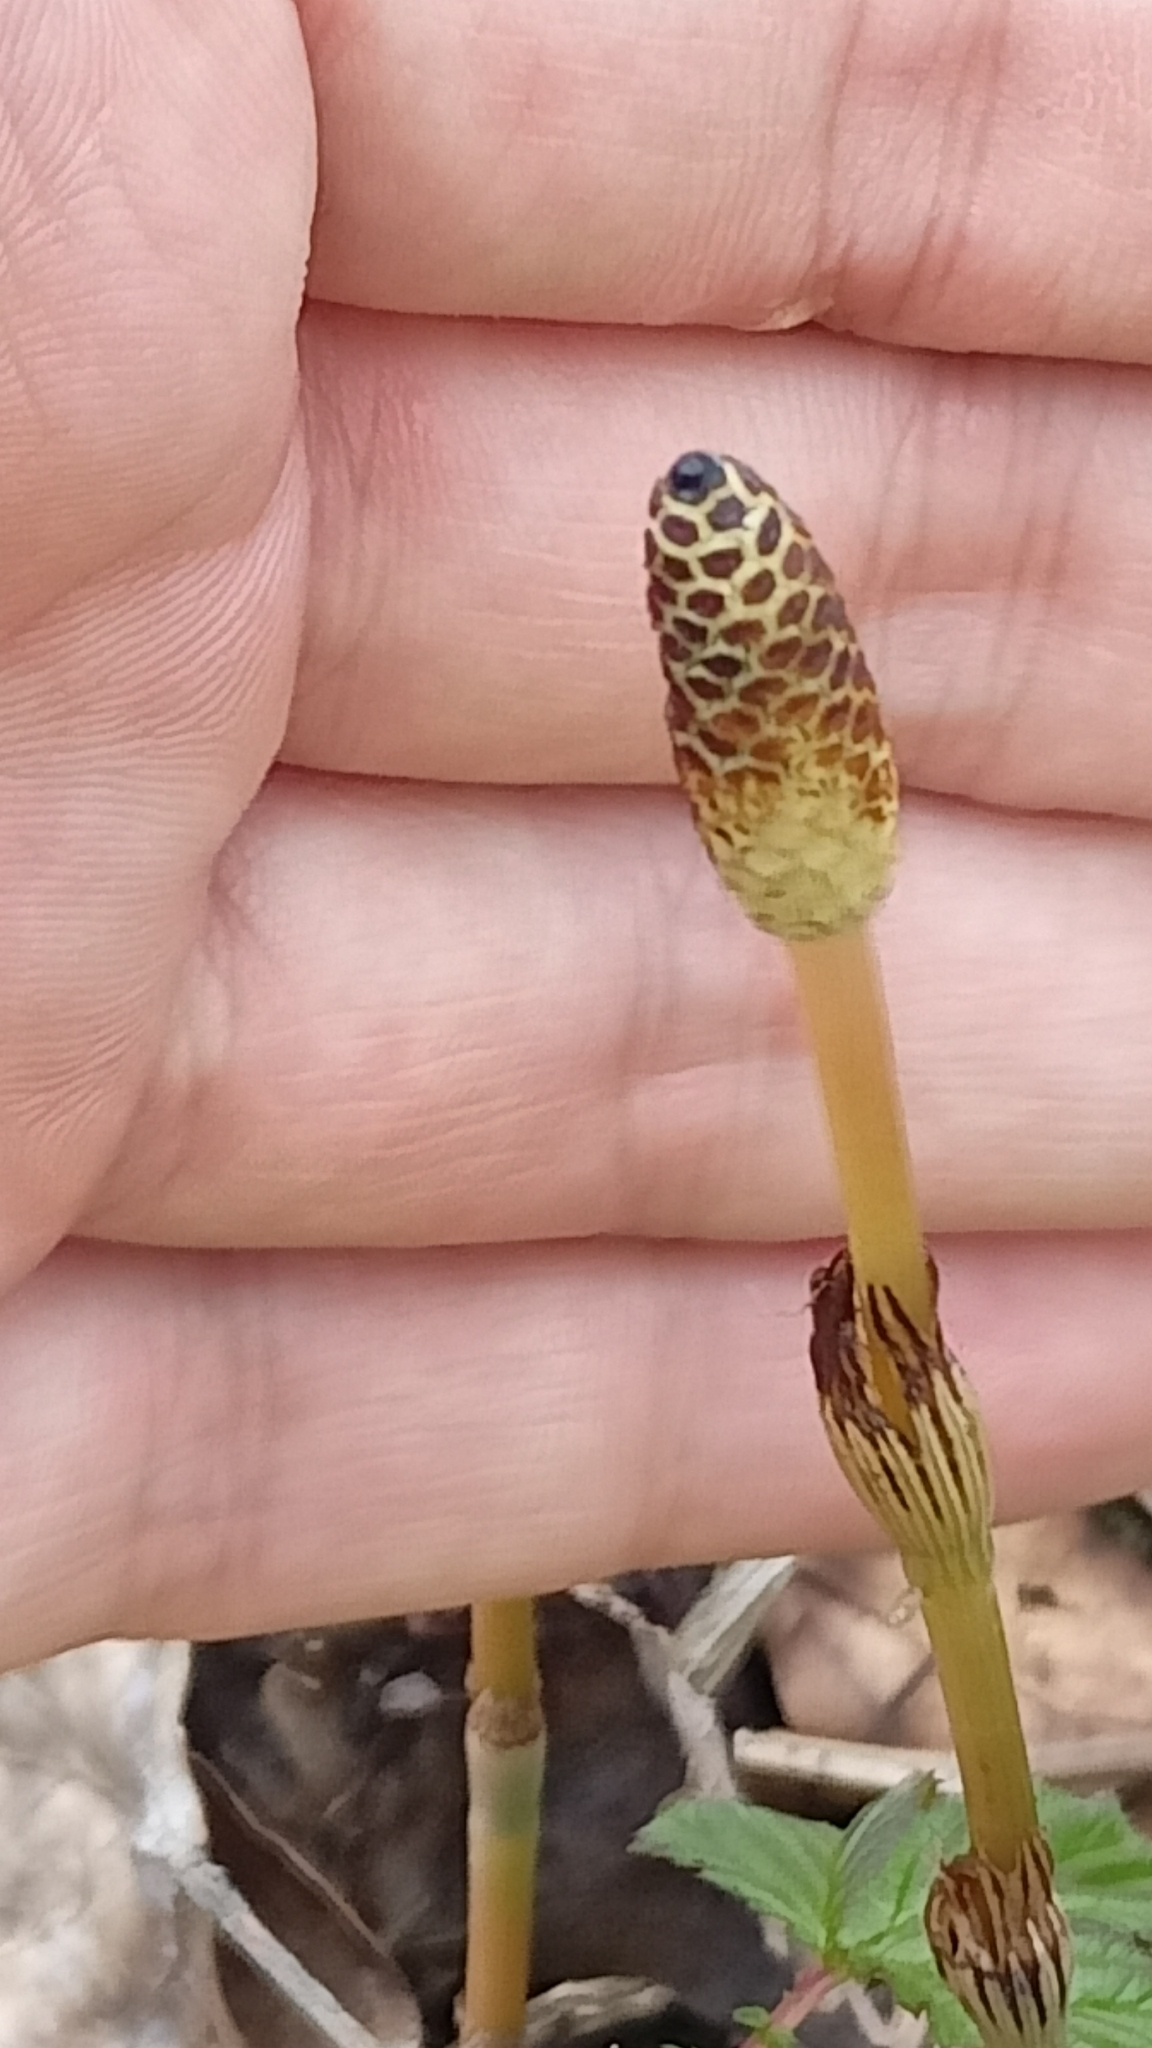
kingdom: Plantae
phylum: Tracheophyta
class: Polypodiopsida
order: Equisetales
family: Equisetaceae
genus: Equisetum
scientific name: Equisetum pratense
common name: Meadow horsetail
